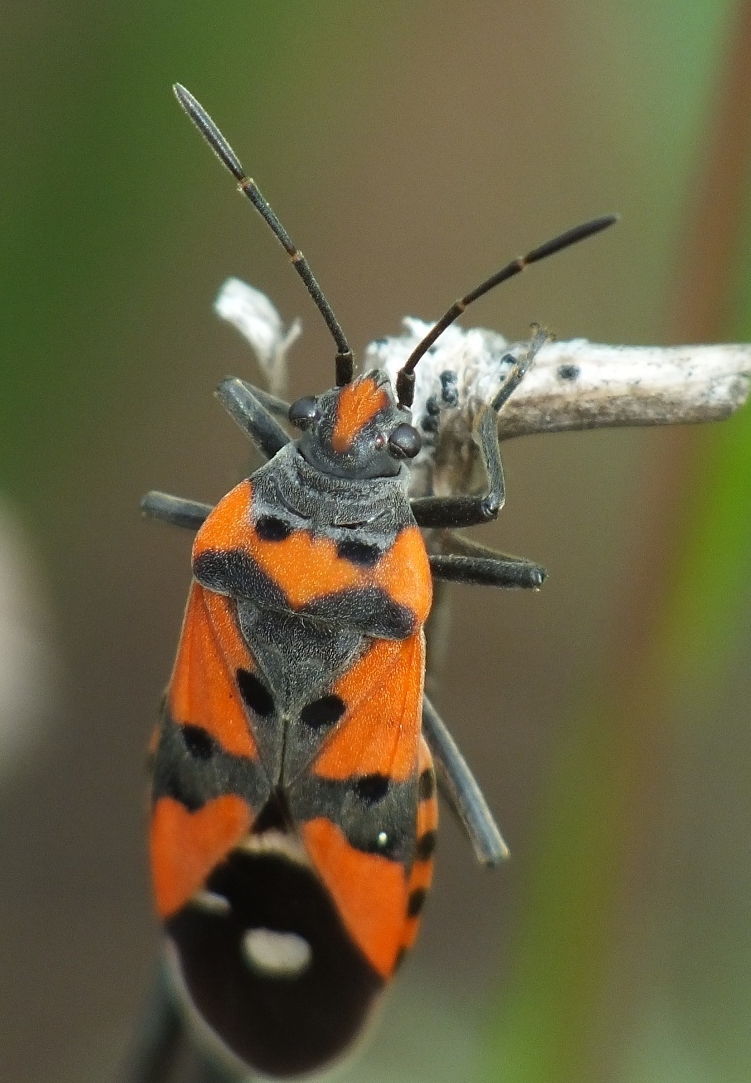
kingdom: Animalia
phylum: Arthropoda
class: Insecta
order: Hemiptera
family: Lygaeidae
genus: Lygaeus
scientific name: Lygaeus equestris
